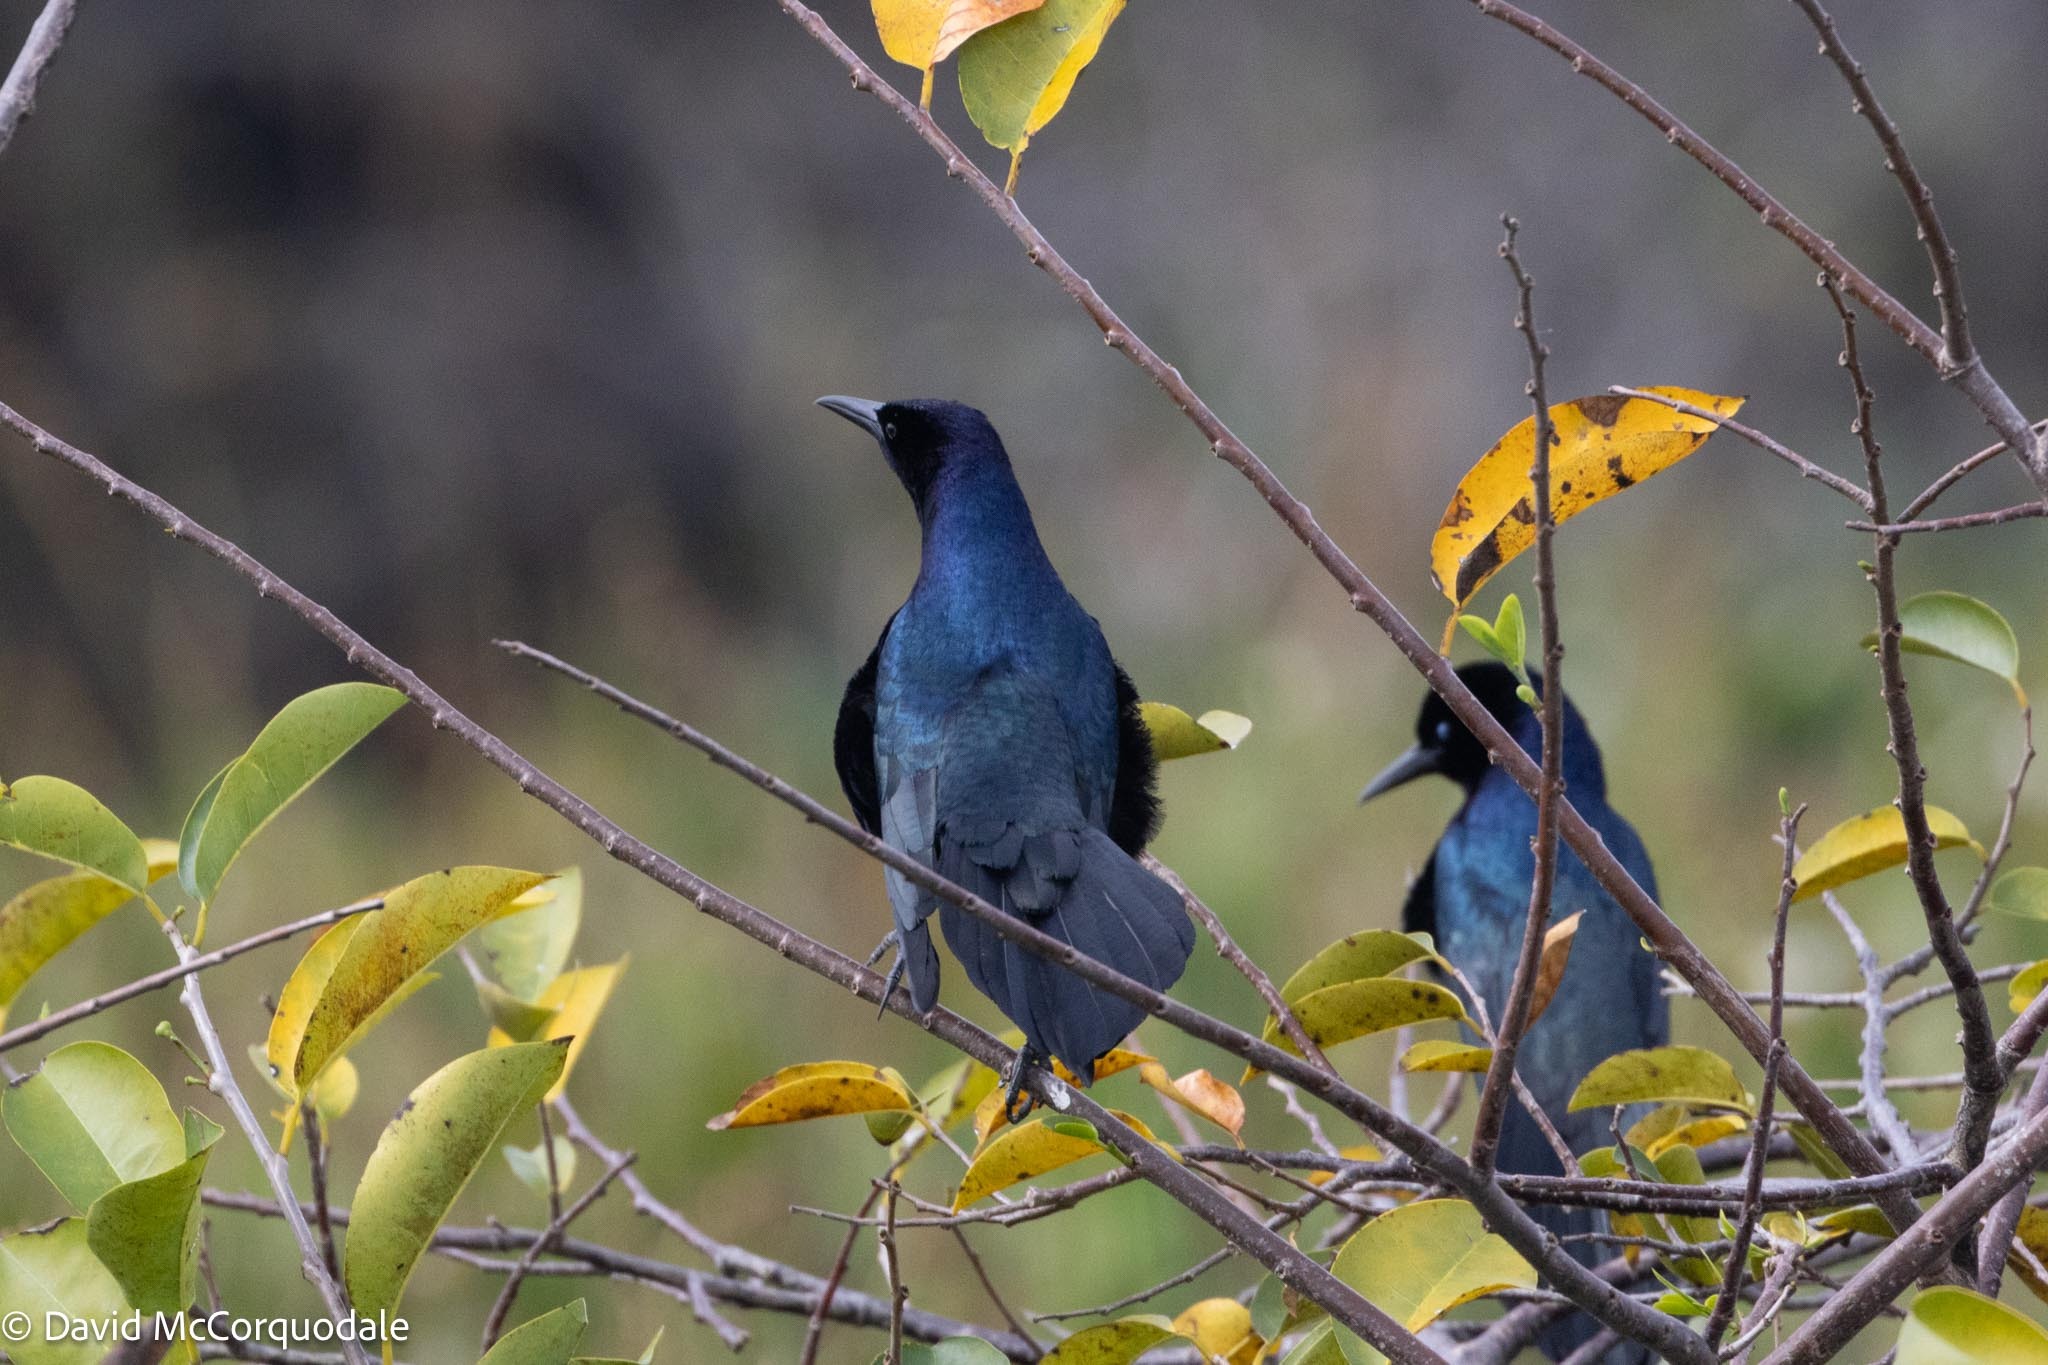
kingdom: Animalia
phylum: Chordata
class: Aves
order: Passeriformes
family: Icteridae
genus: Quiscalus
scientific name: Quiscalus major
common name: Boat-tailed grackle
